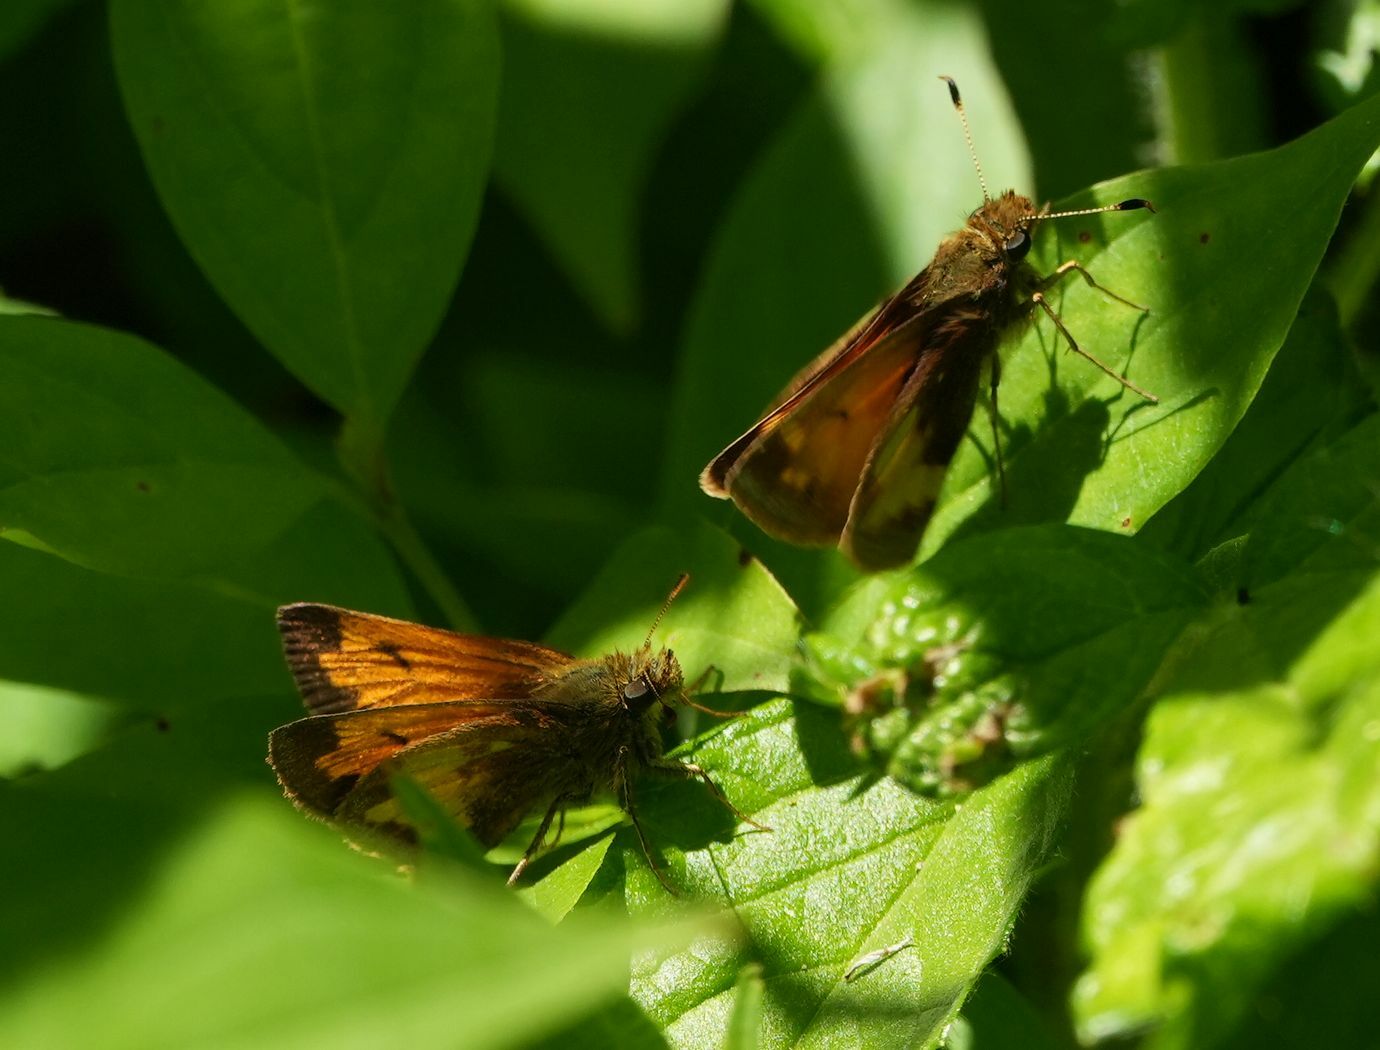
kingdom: Animalia
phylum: Arthropoda
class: Insecta
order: Lepidoptera
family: Hesperiidae
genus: Lon
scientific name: Lon hobomok
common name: Hobomok skipper
